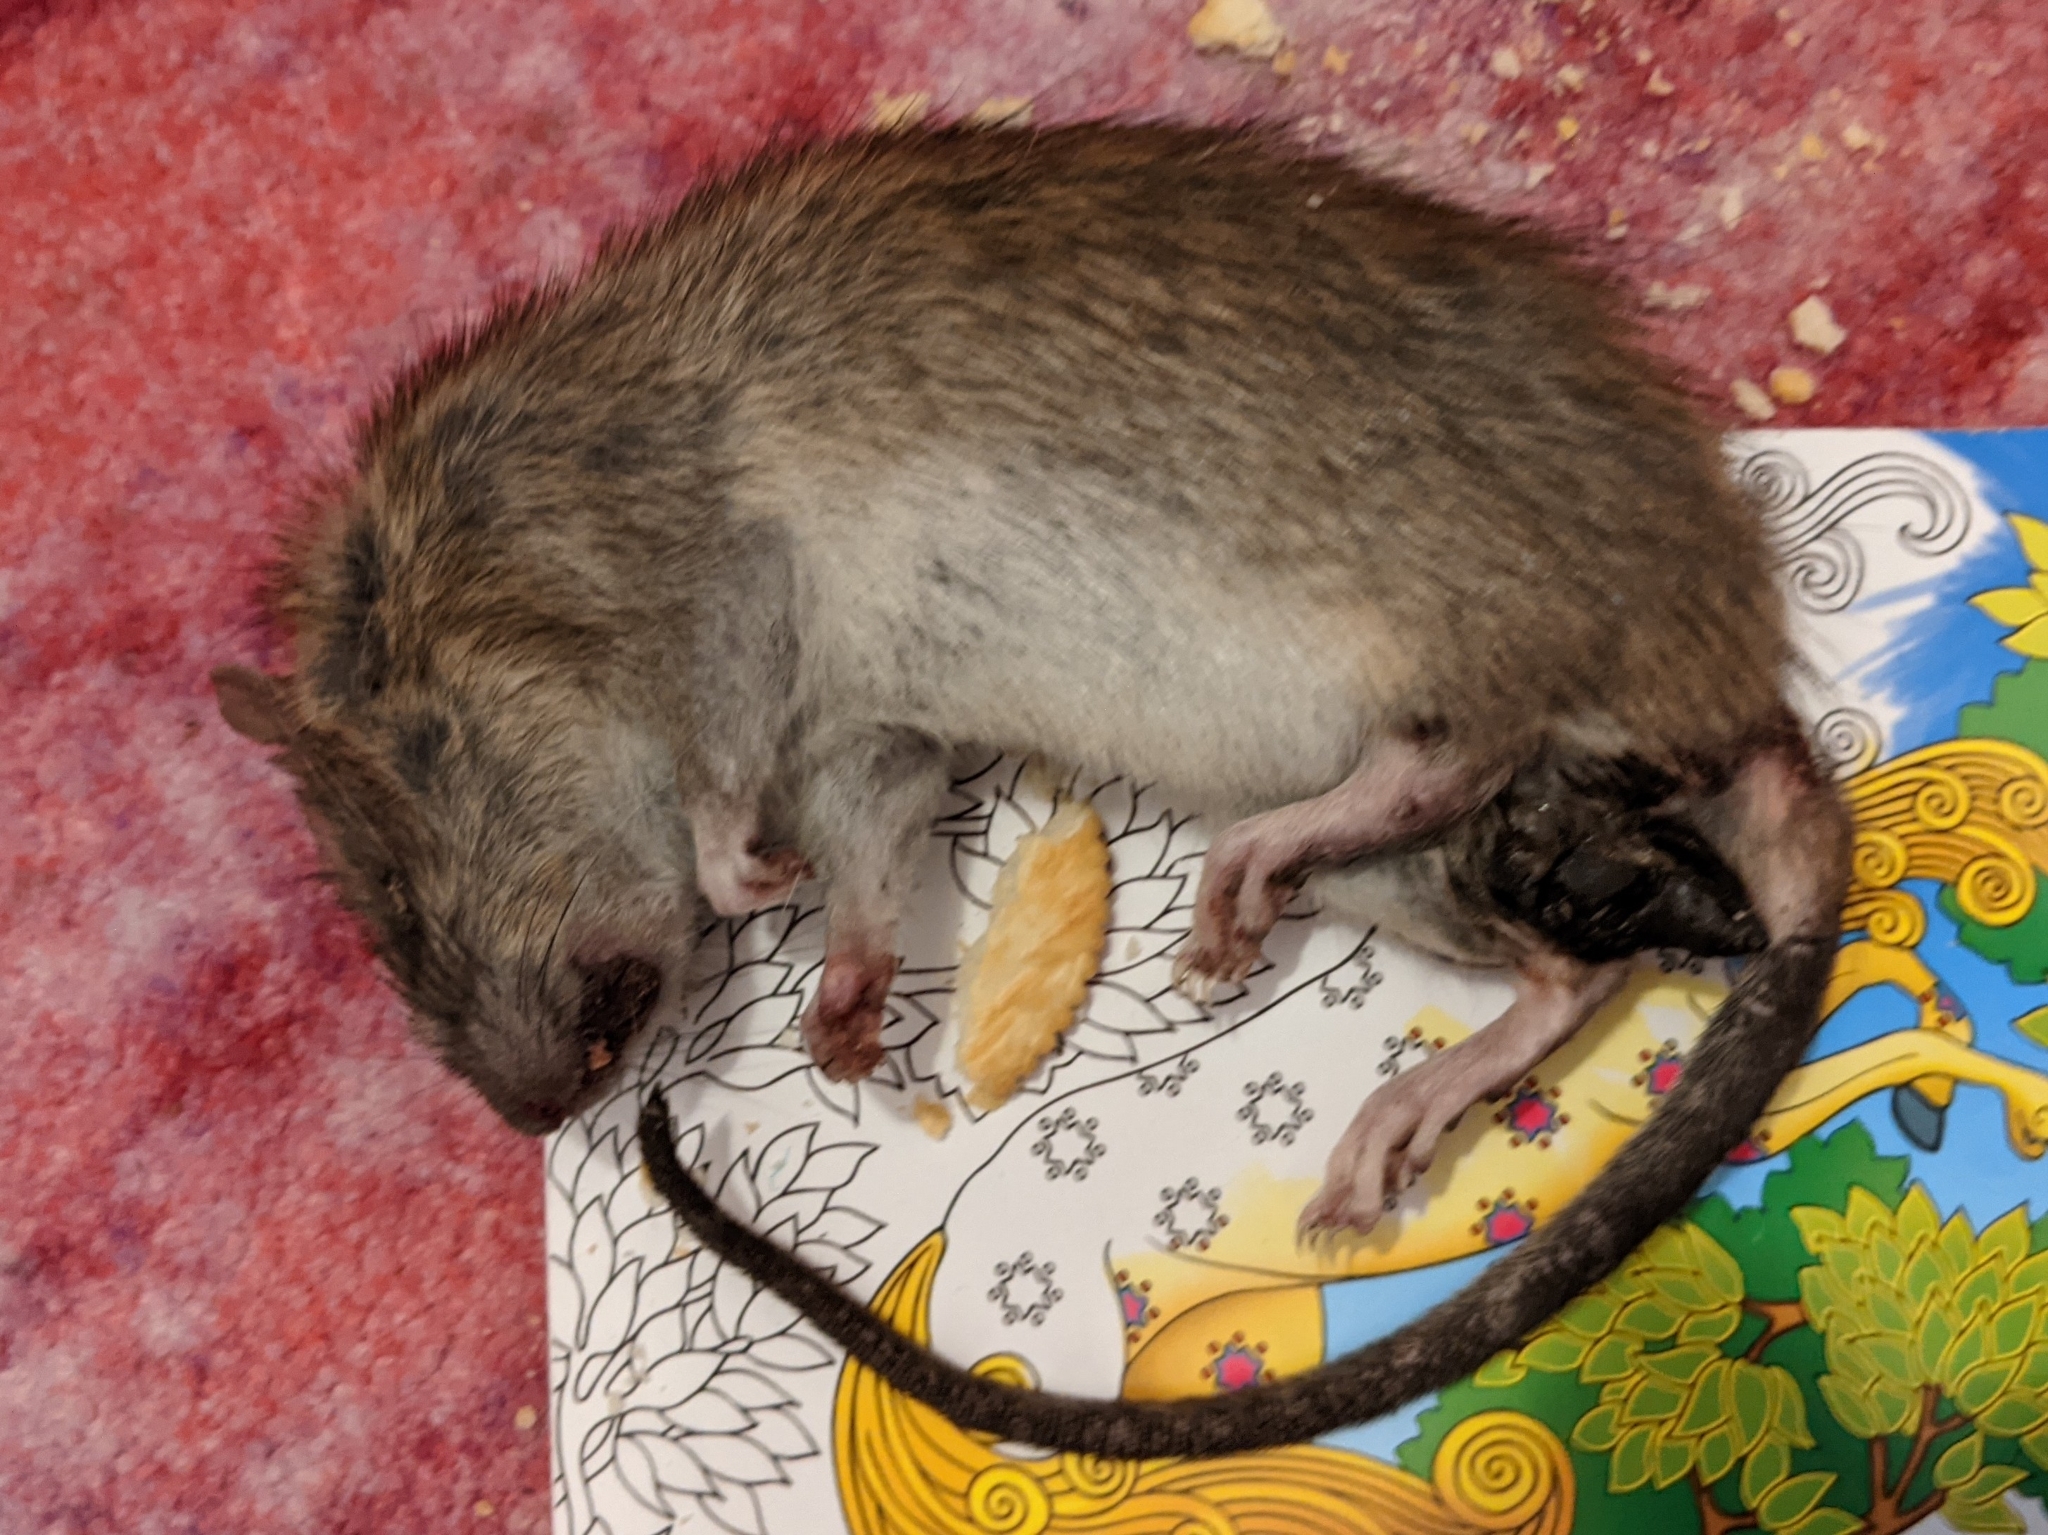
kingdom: Animalia
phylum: Chordata
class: Mammalia
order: Rodentia
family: Muridae
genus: Rattus
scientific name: Rattus norvegicus
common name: Brown rat
